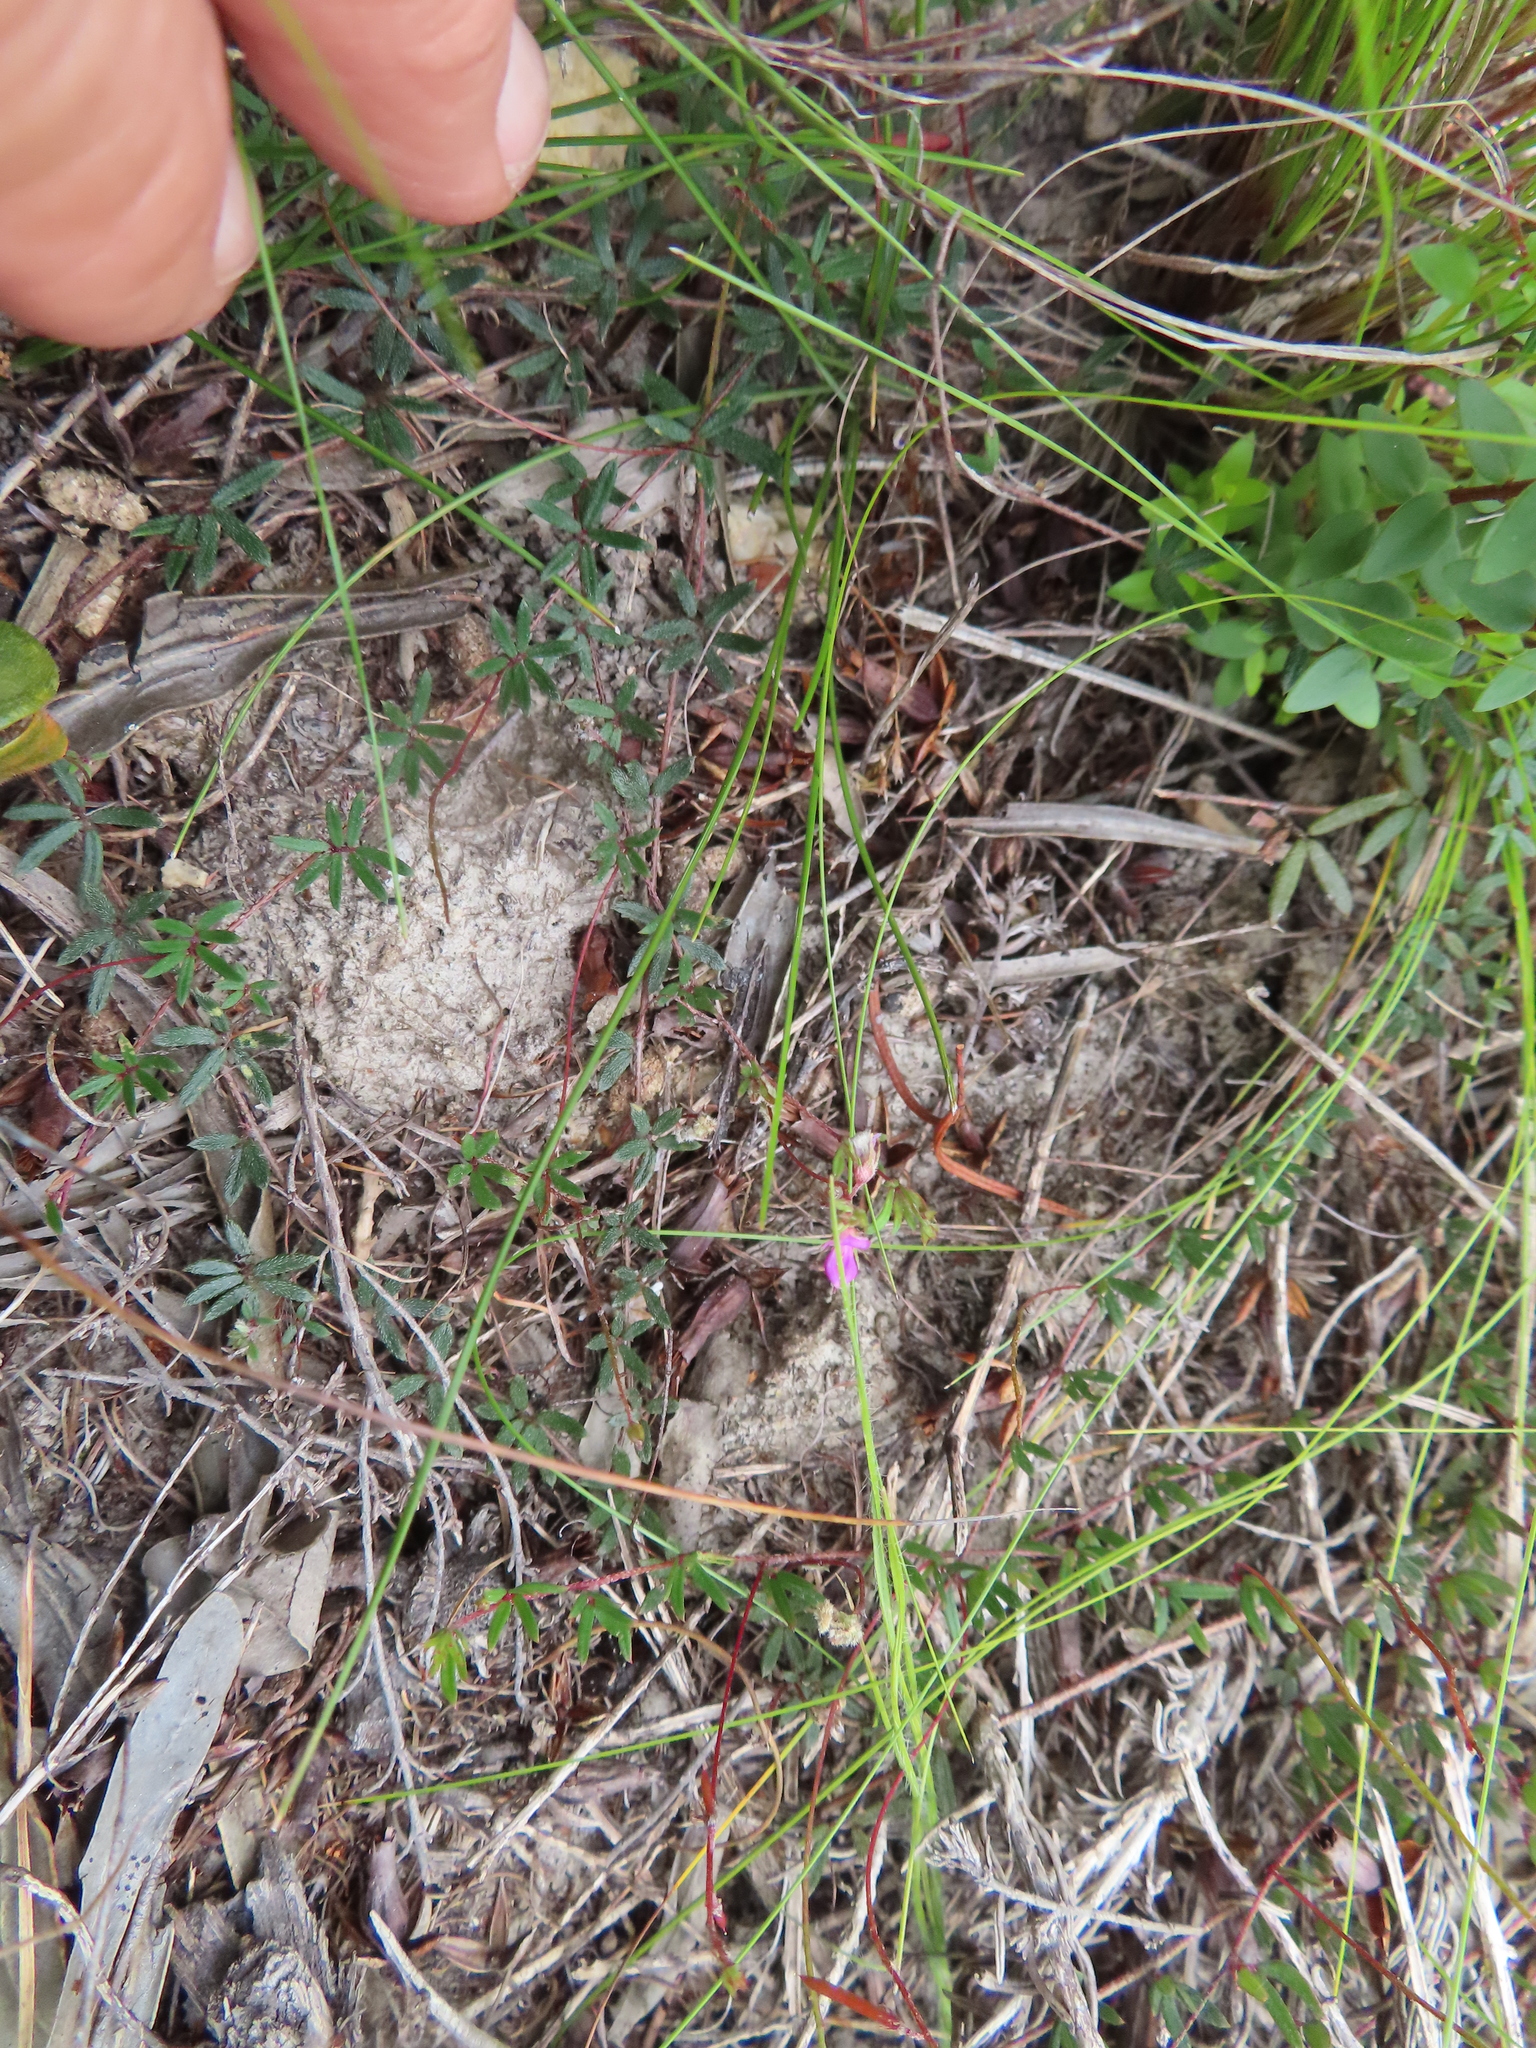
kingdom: Plantae
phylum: Tracheophyta
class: Magnoliopsida
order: Fabales
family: Fabaceae
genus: Indigofera
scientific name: Indigofera angustifolia
